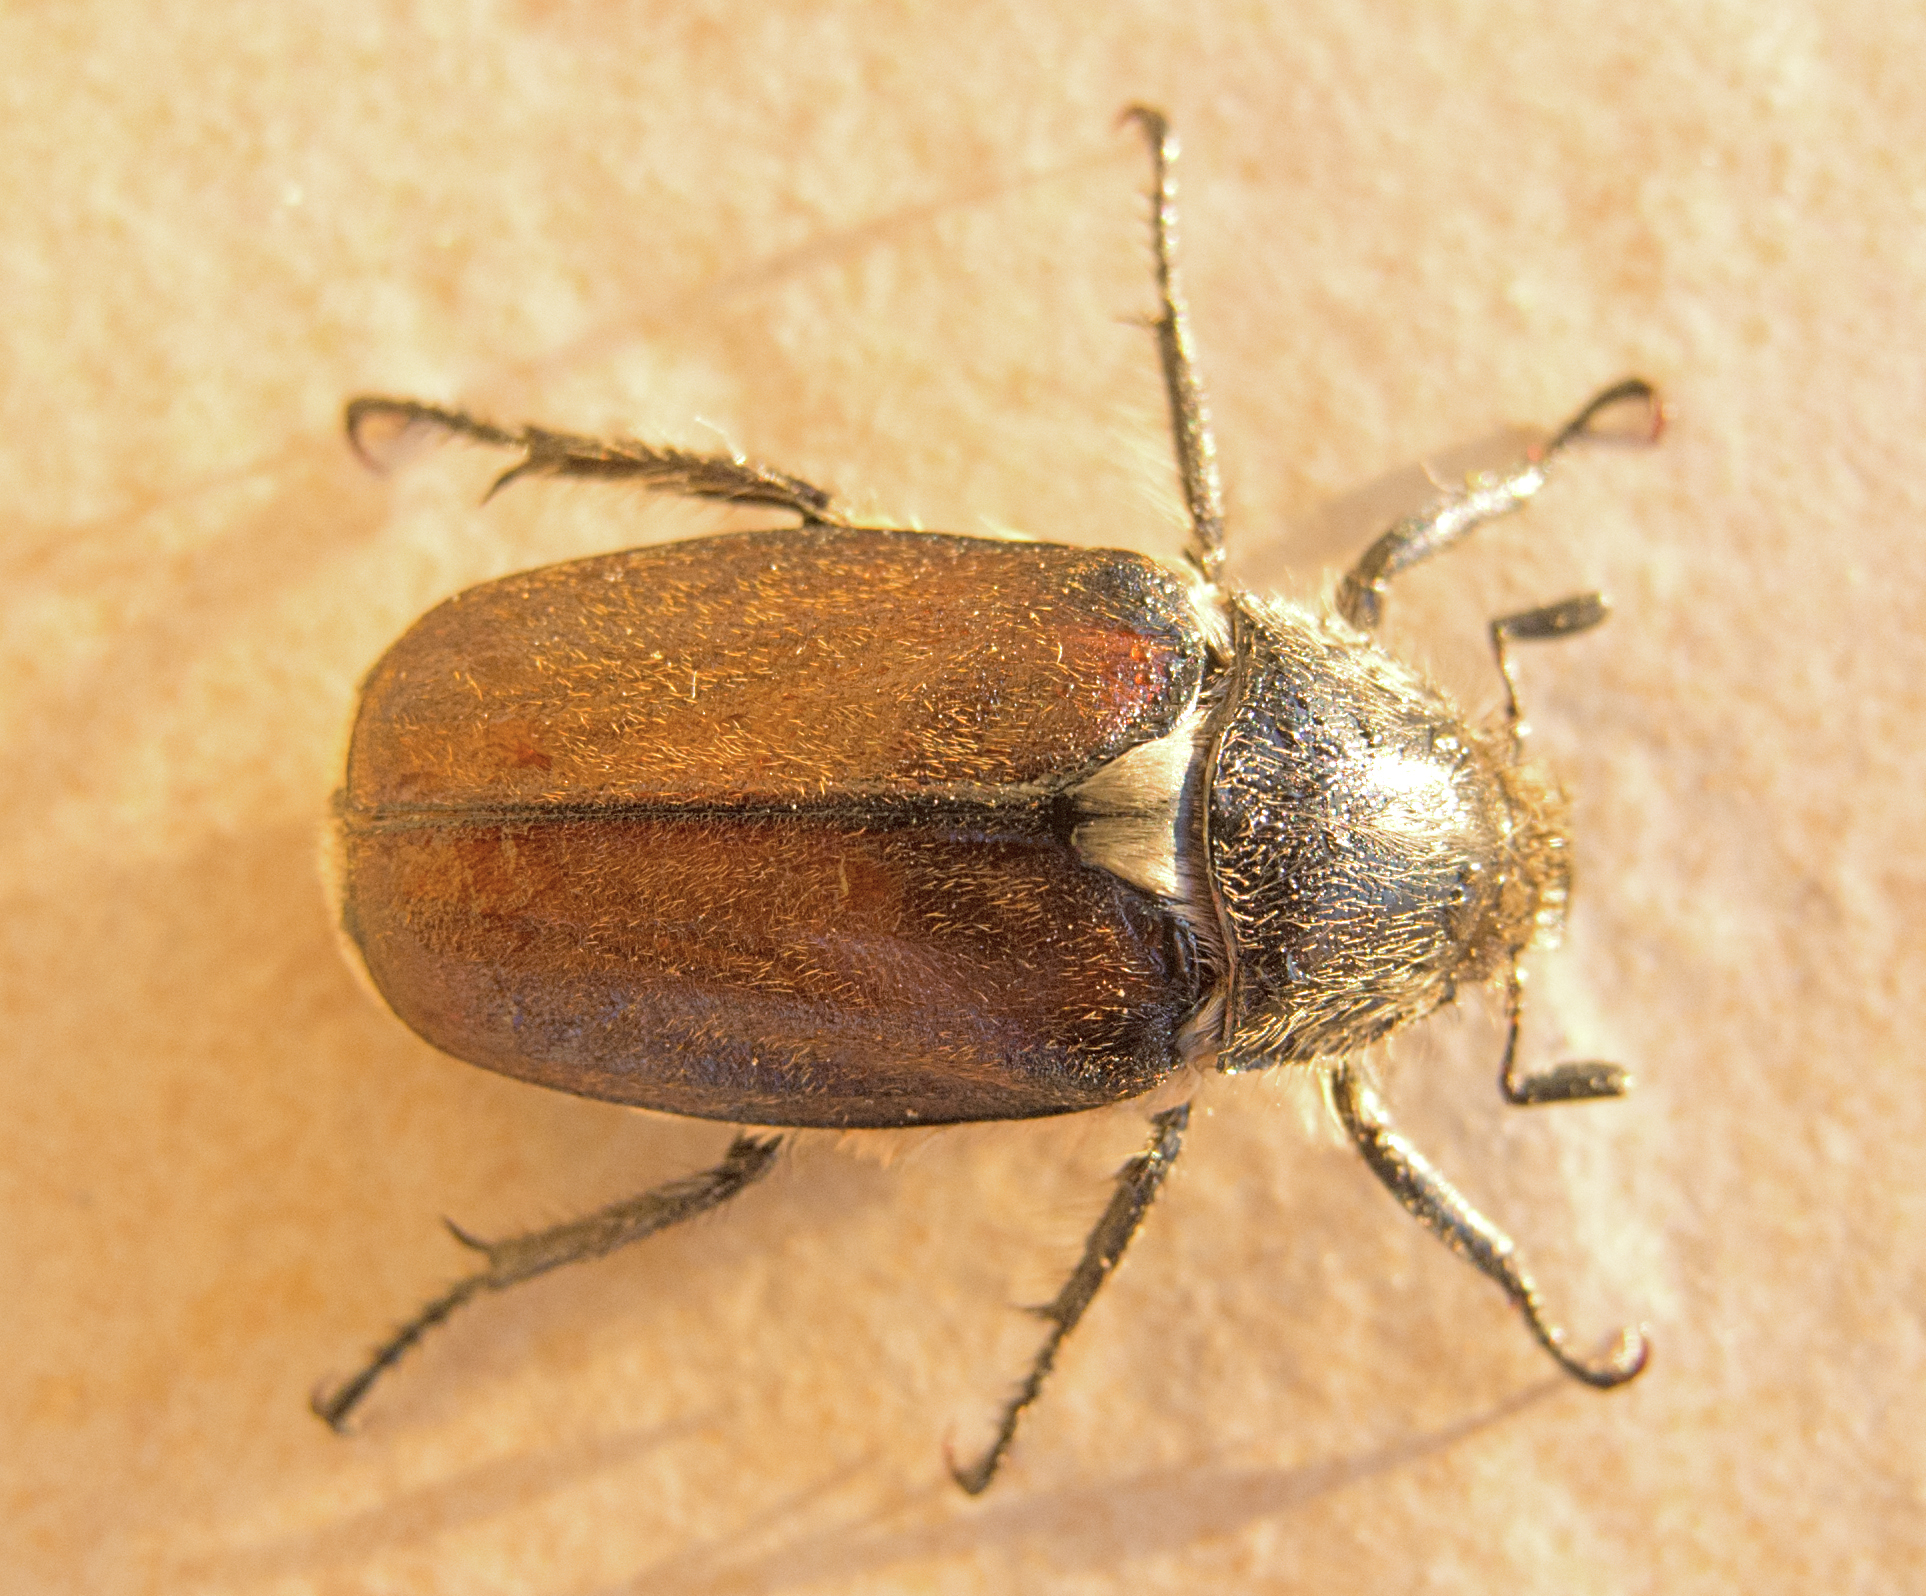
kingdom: Animalia
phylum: Arthropoda
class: Insecta
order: Coleoptera
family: Scarabaeidae
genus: Anoxia
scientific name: Anoxia scutellaris
